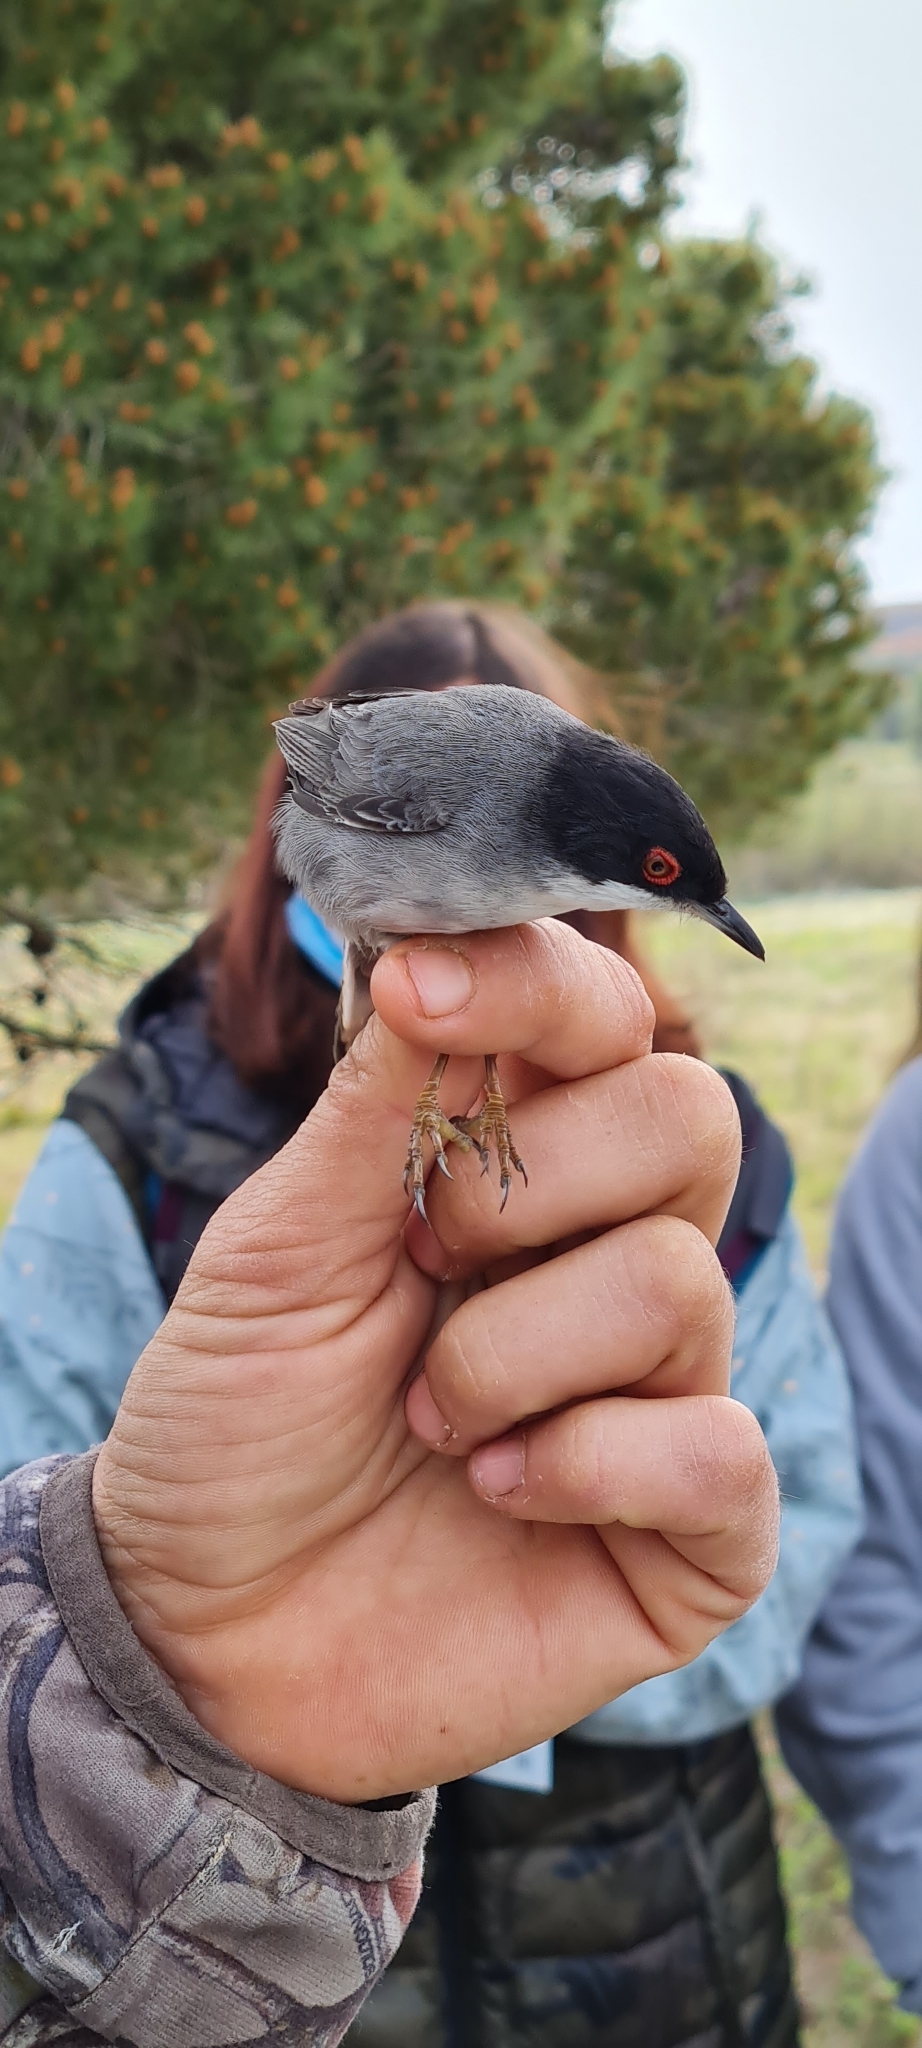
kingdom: Animalia
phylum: Chordata
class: Aves
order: Passeriformes
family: Sylviidae
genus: Curruca
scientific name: Curruca melanocephala
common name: Sardinian warbler
